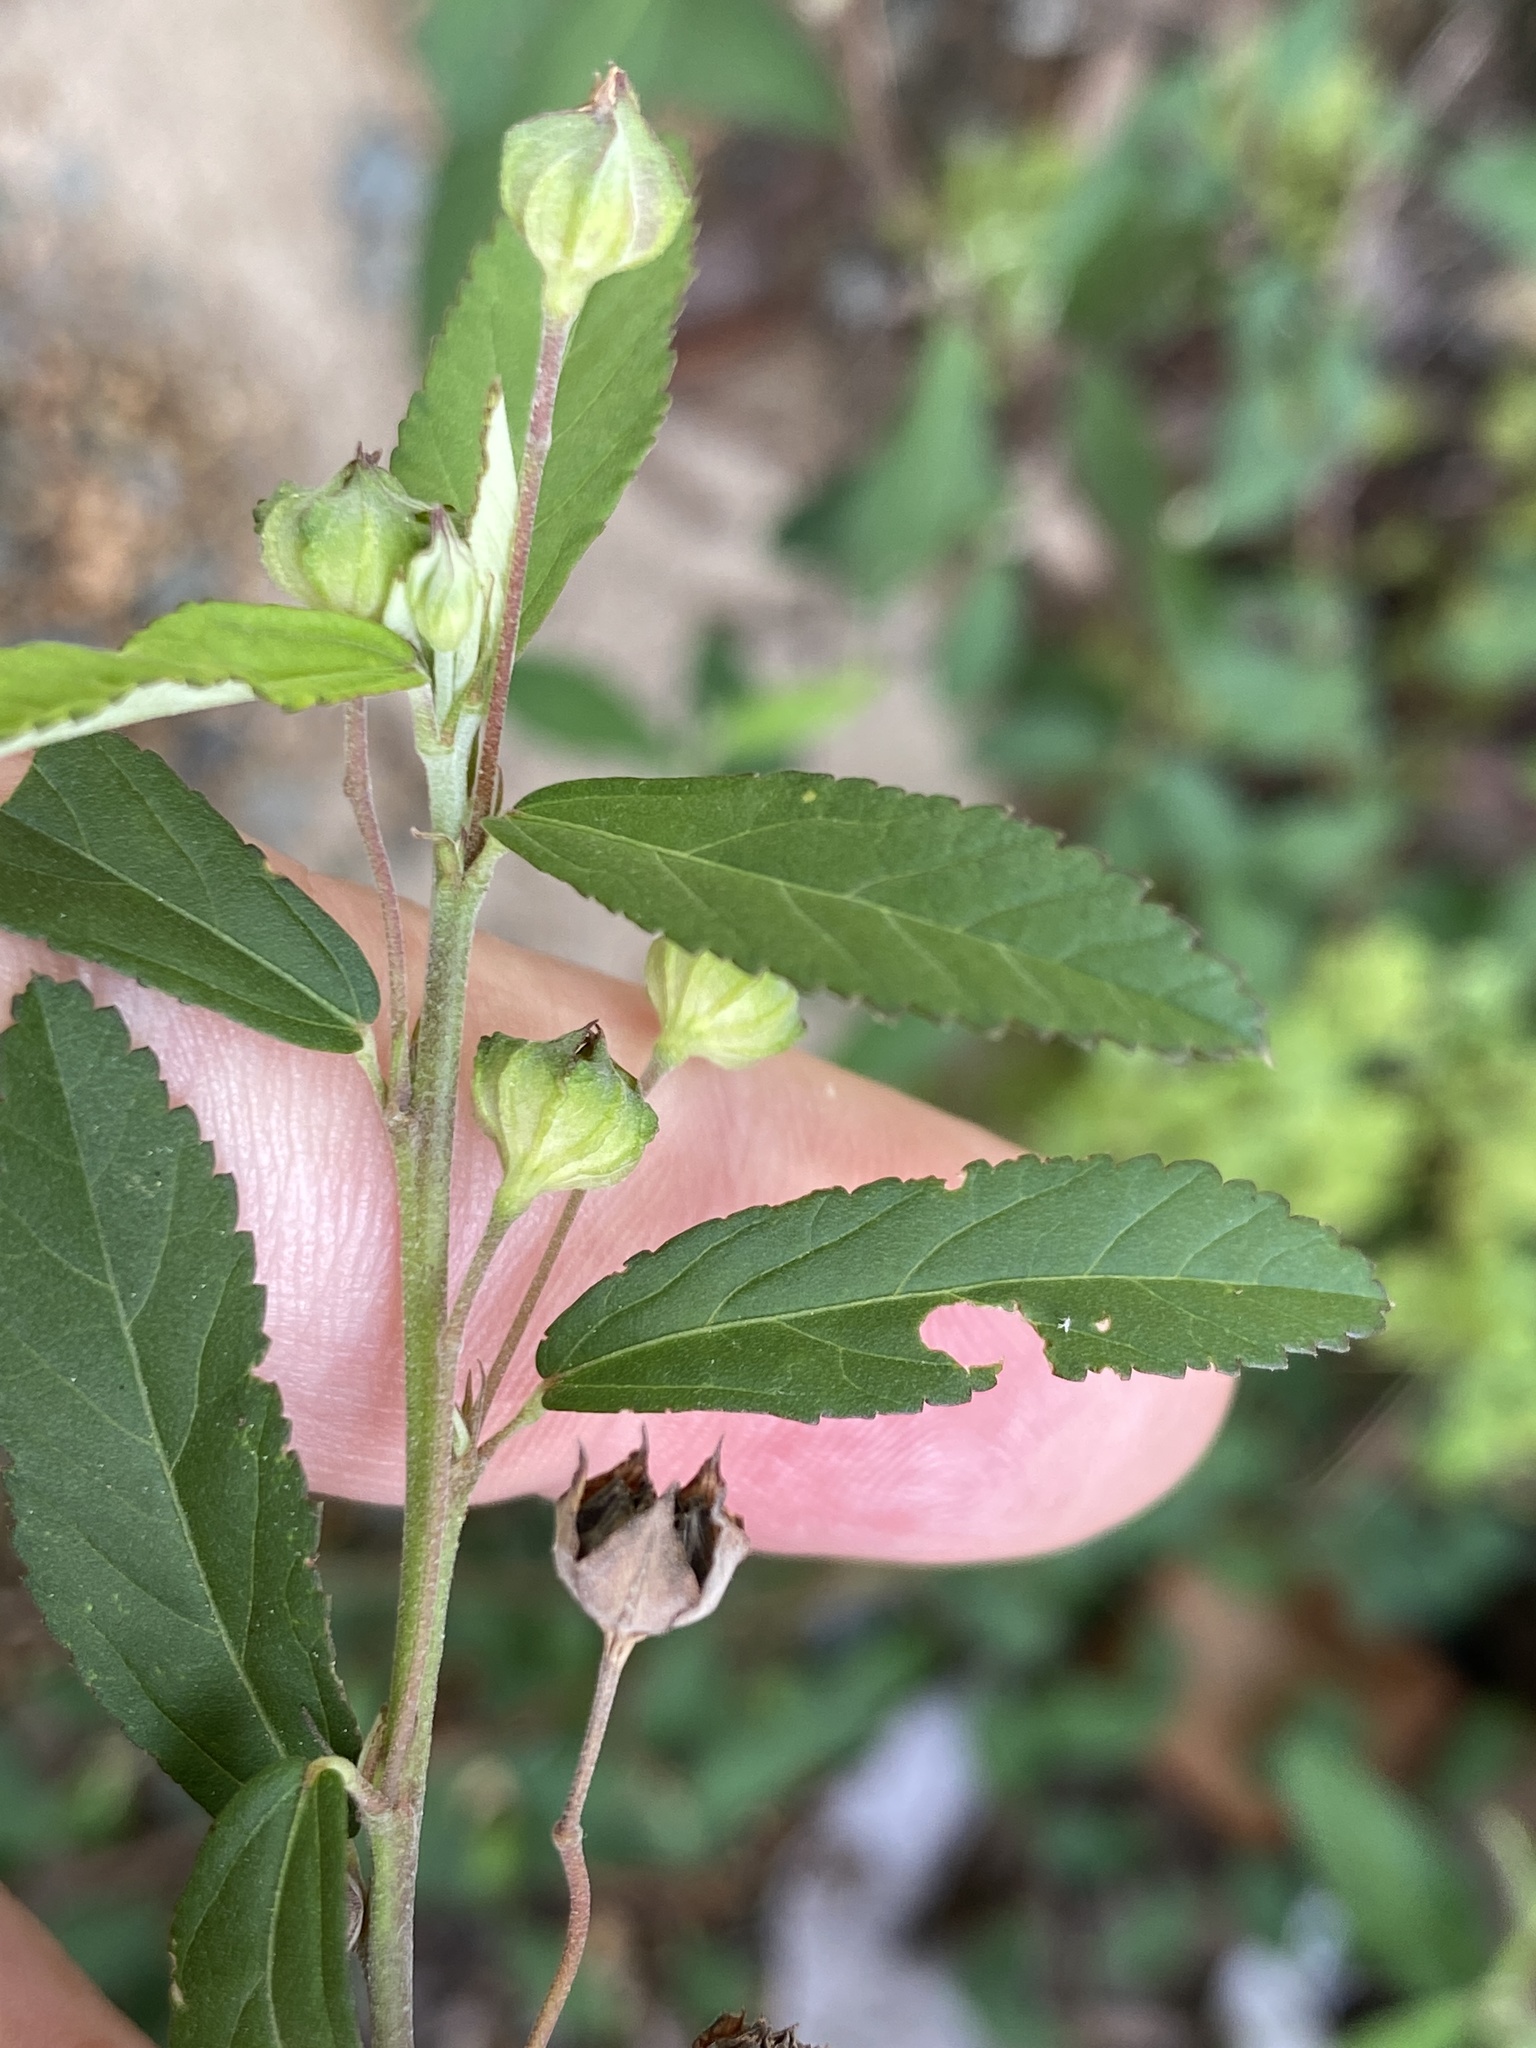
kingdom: Plantae
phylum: Tracheophyta
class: Magnoliopsida
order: Malvales
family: Malvaceae
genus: Sida
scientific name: Sida rhombifolia
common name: Queensland-hemp
